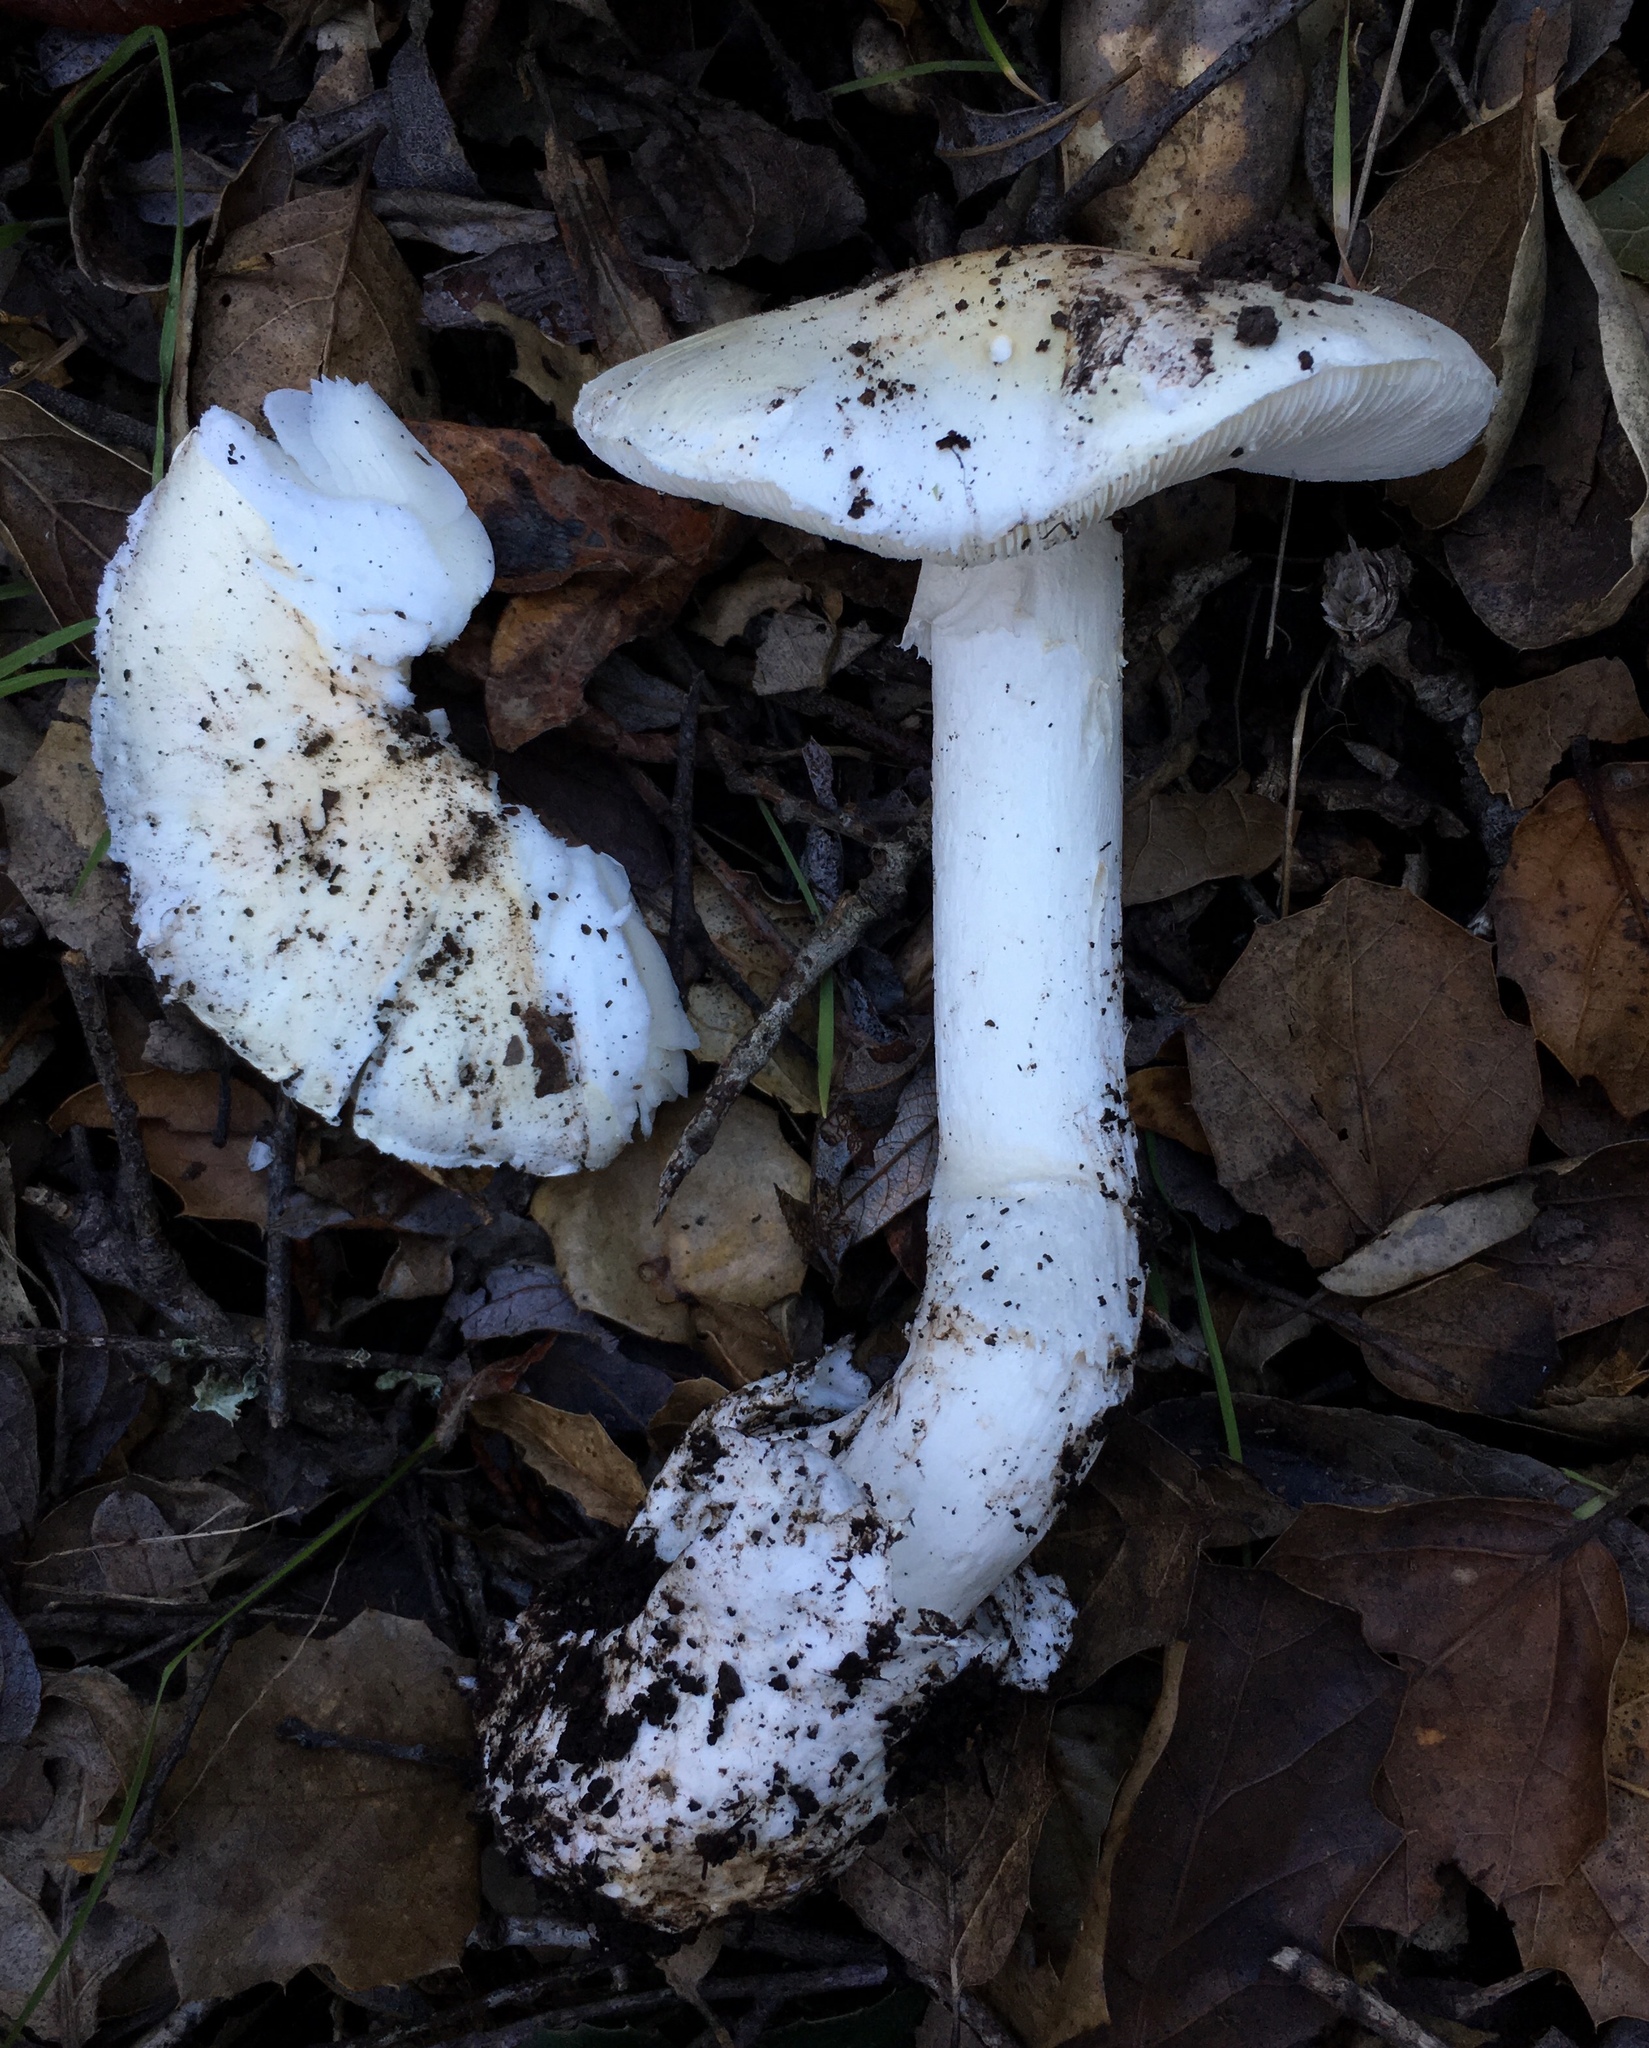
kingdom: Fungi
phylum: Basidiomycota
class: Agaricomycetes
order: Agaricales
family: Amanitaceae
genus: Amanita
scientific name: Amanita ocreata
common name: Western destroying angel
